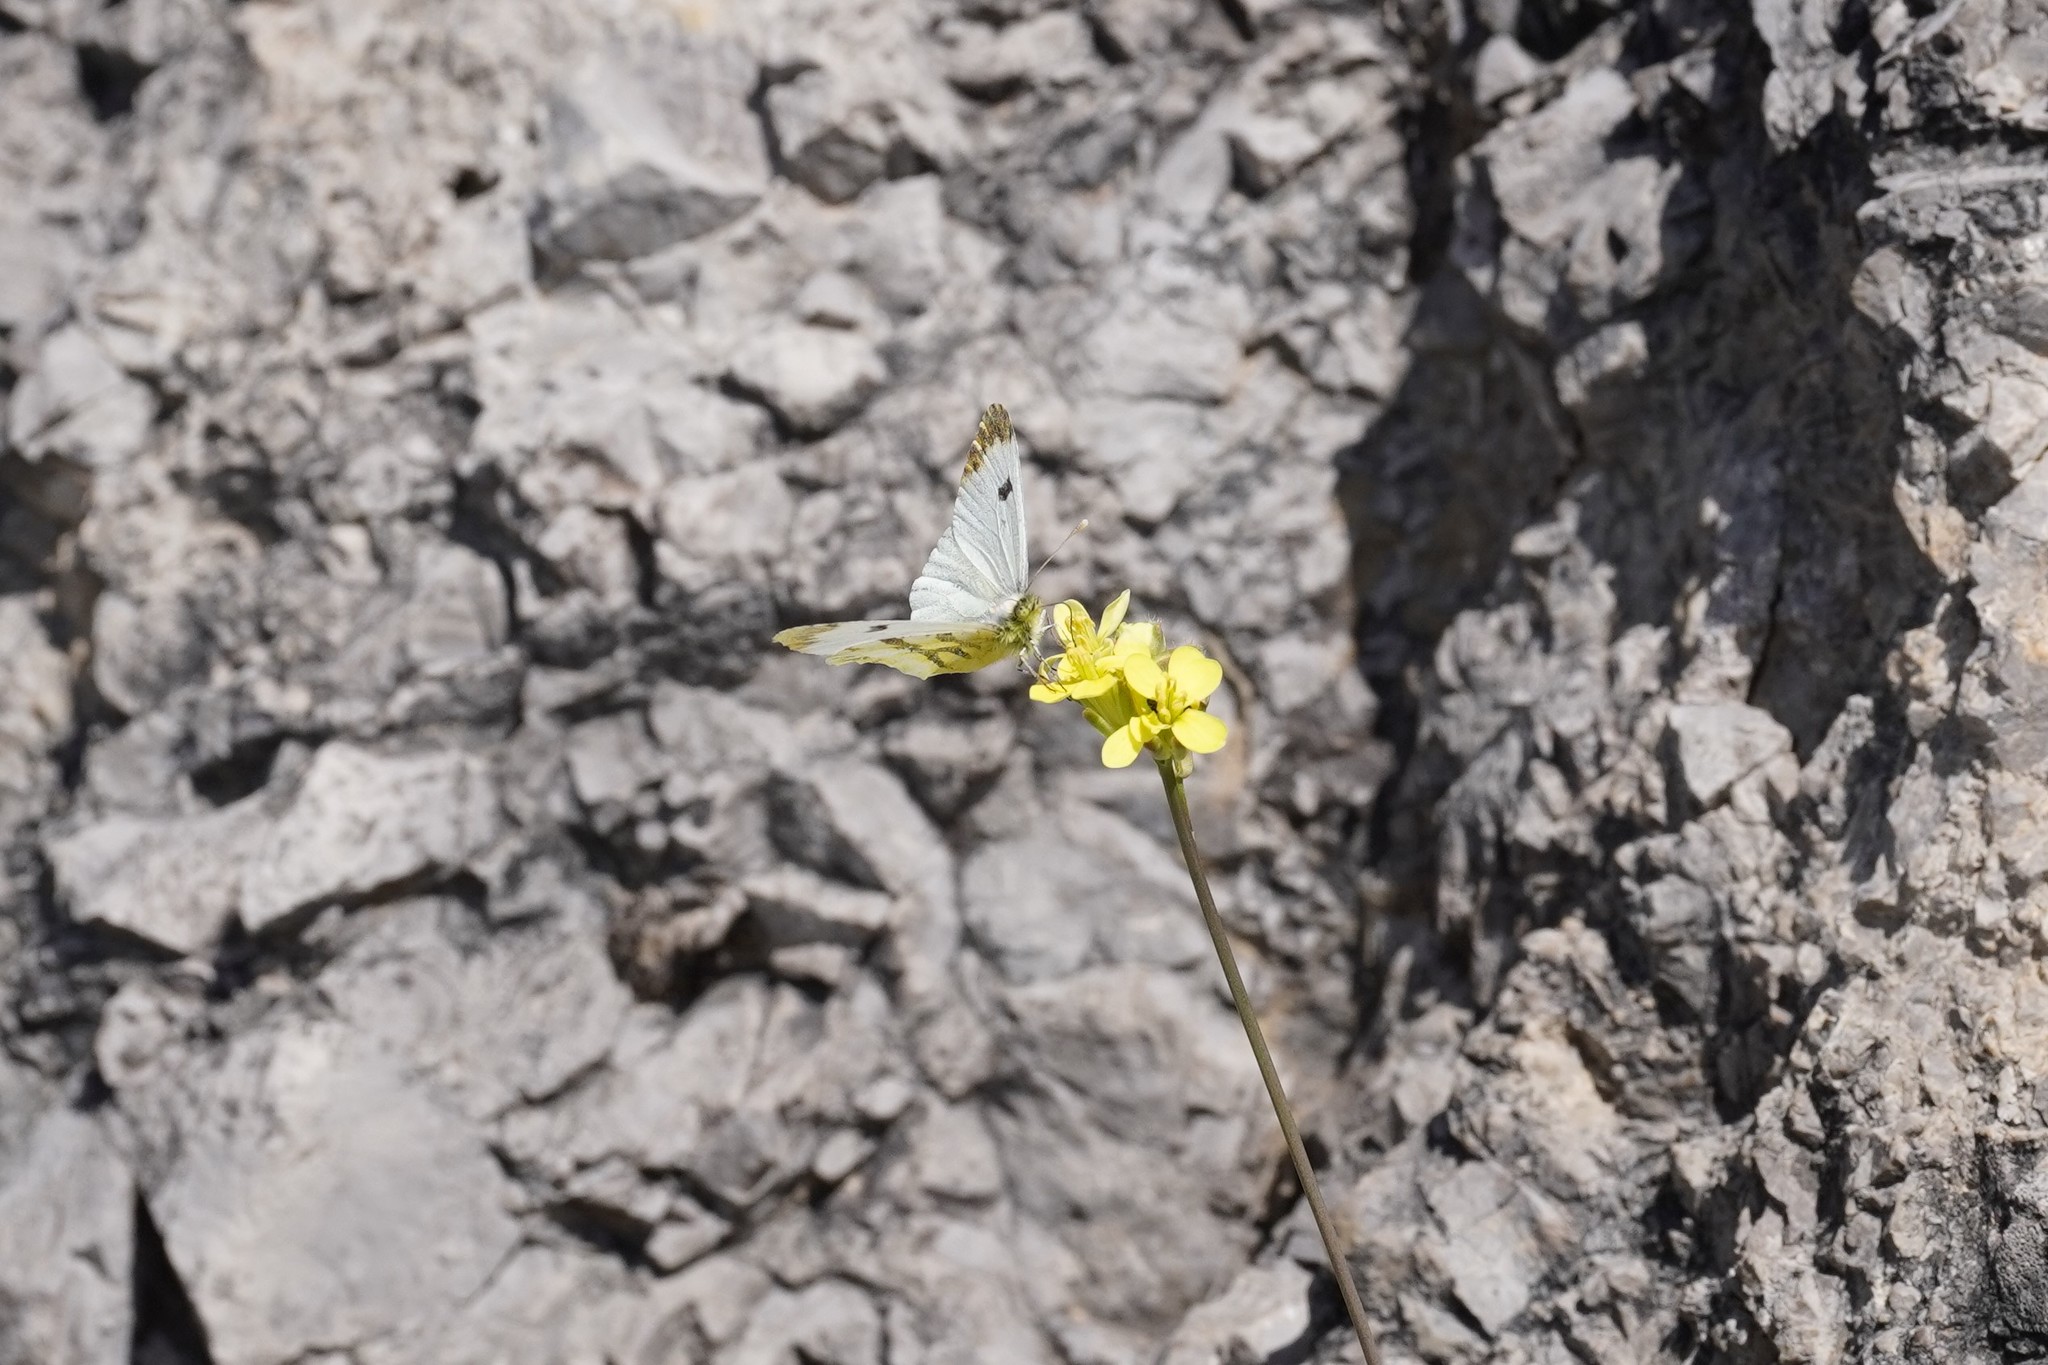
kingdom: Animalia
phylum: Arthropoda
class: Insecta
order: Lepidoptera
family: Pieridae
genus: Anthocharis
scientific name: Anthocharis euphenoides
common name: Provence orange-tip
